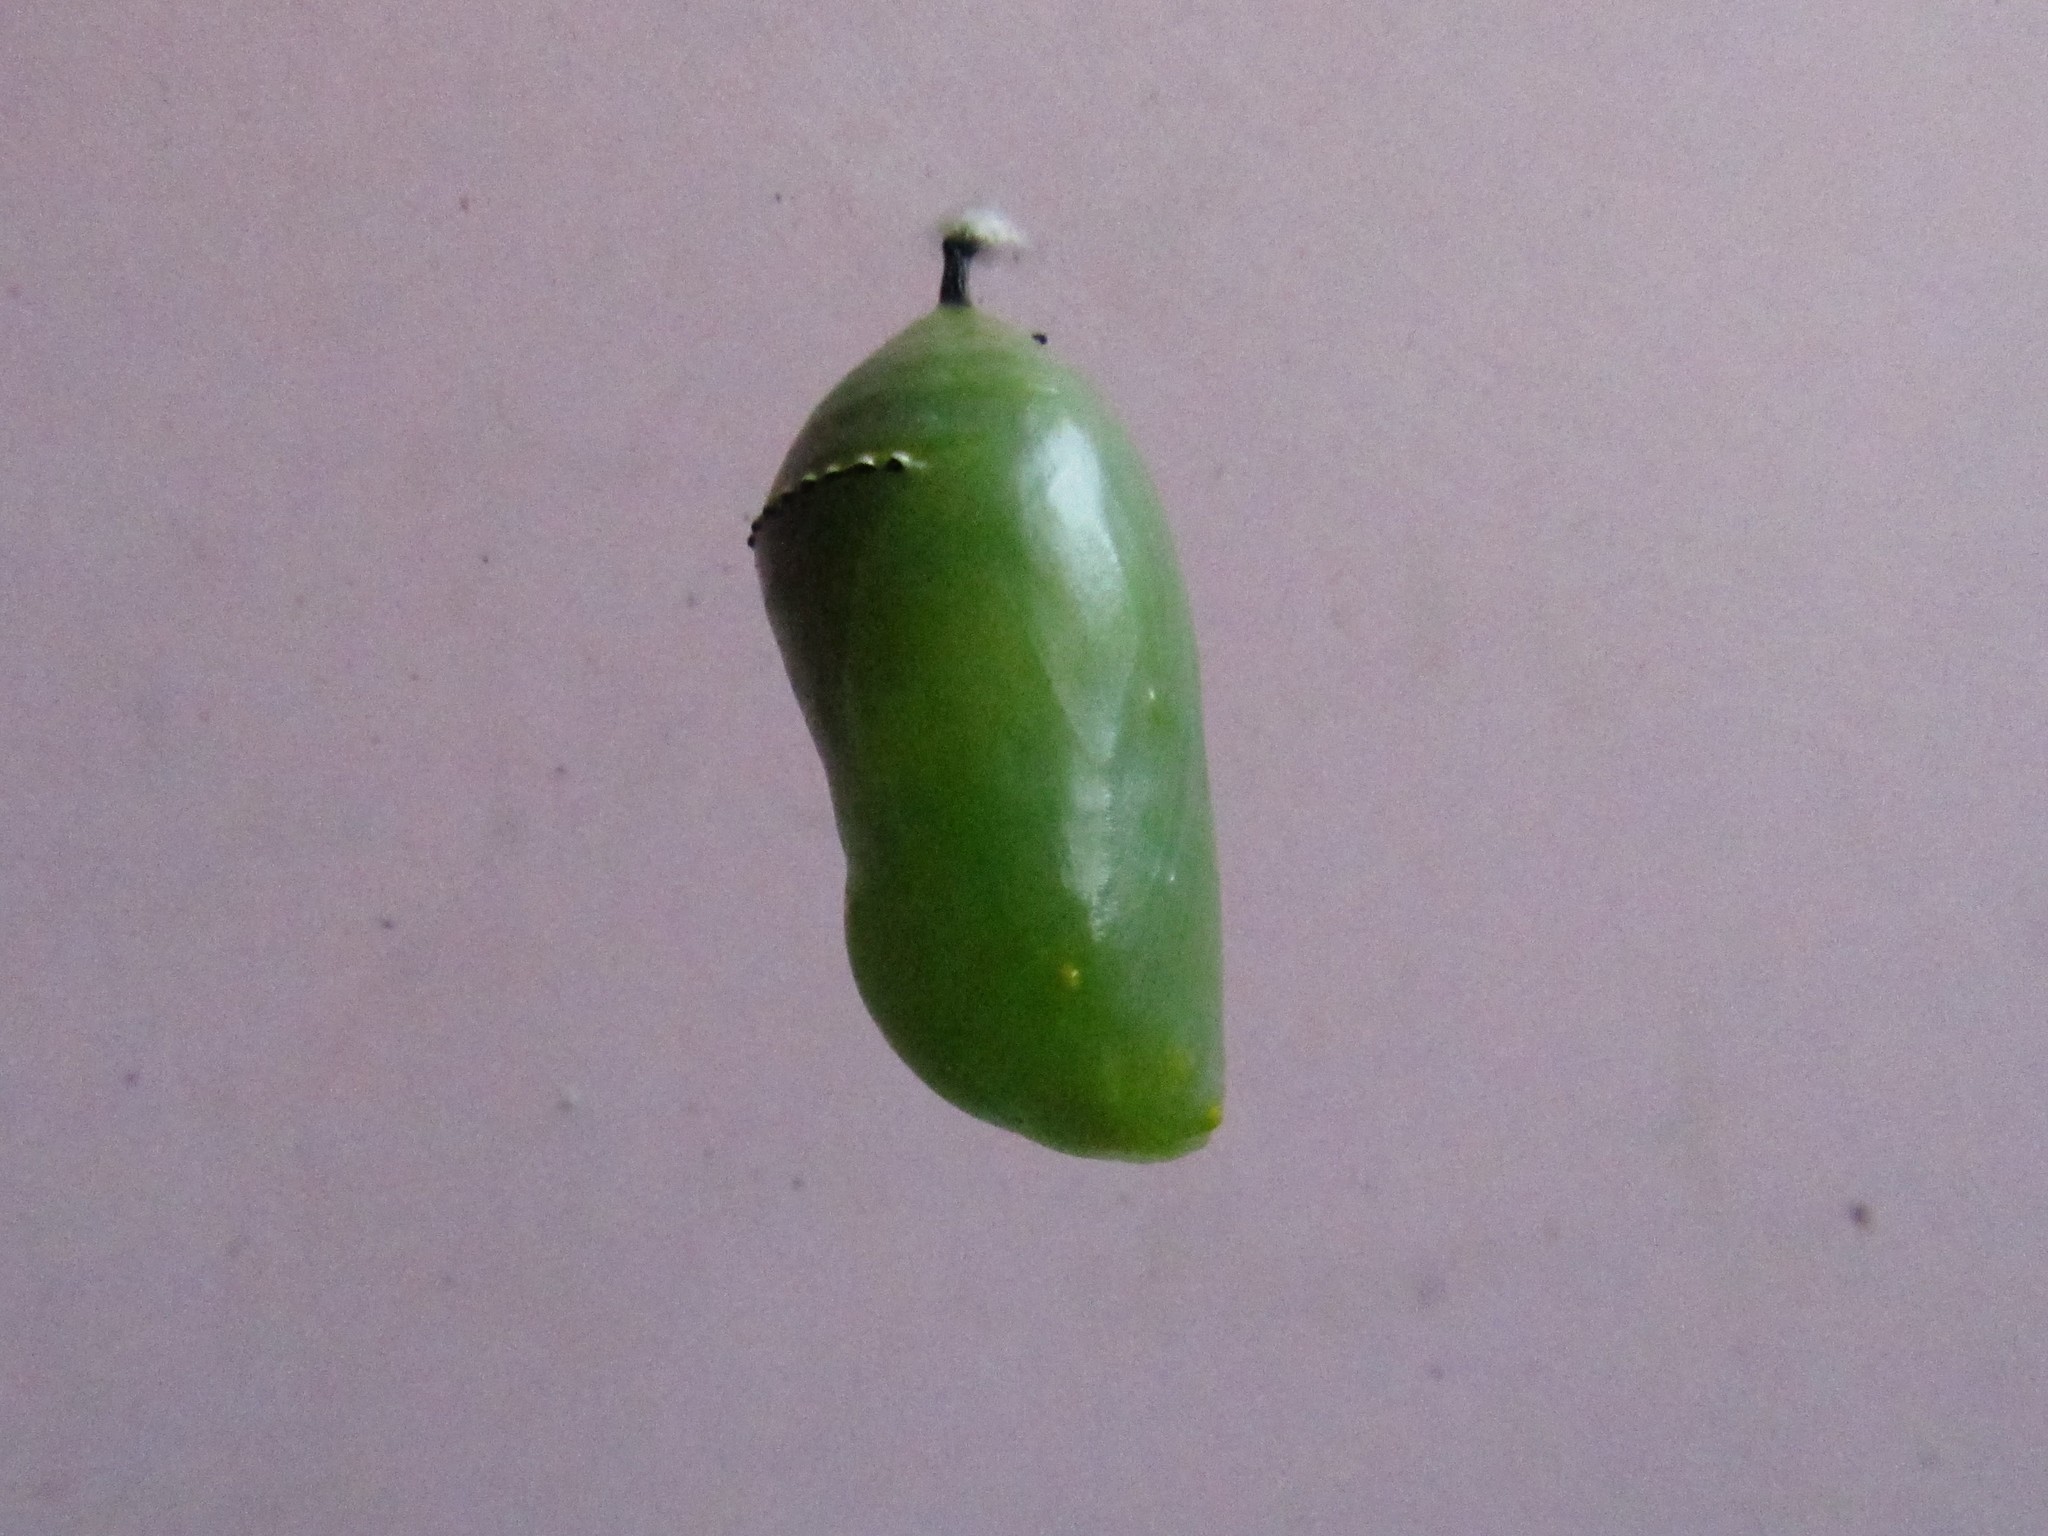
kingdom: Animalia
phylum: Arthropoda
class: Insecta
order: Lepidoptera
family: Nymphalidae
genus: Danaus
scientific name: Danaus plexippus
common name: Monarch
